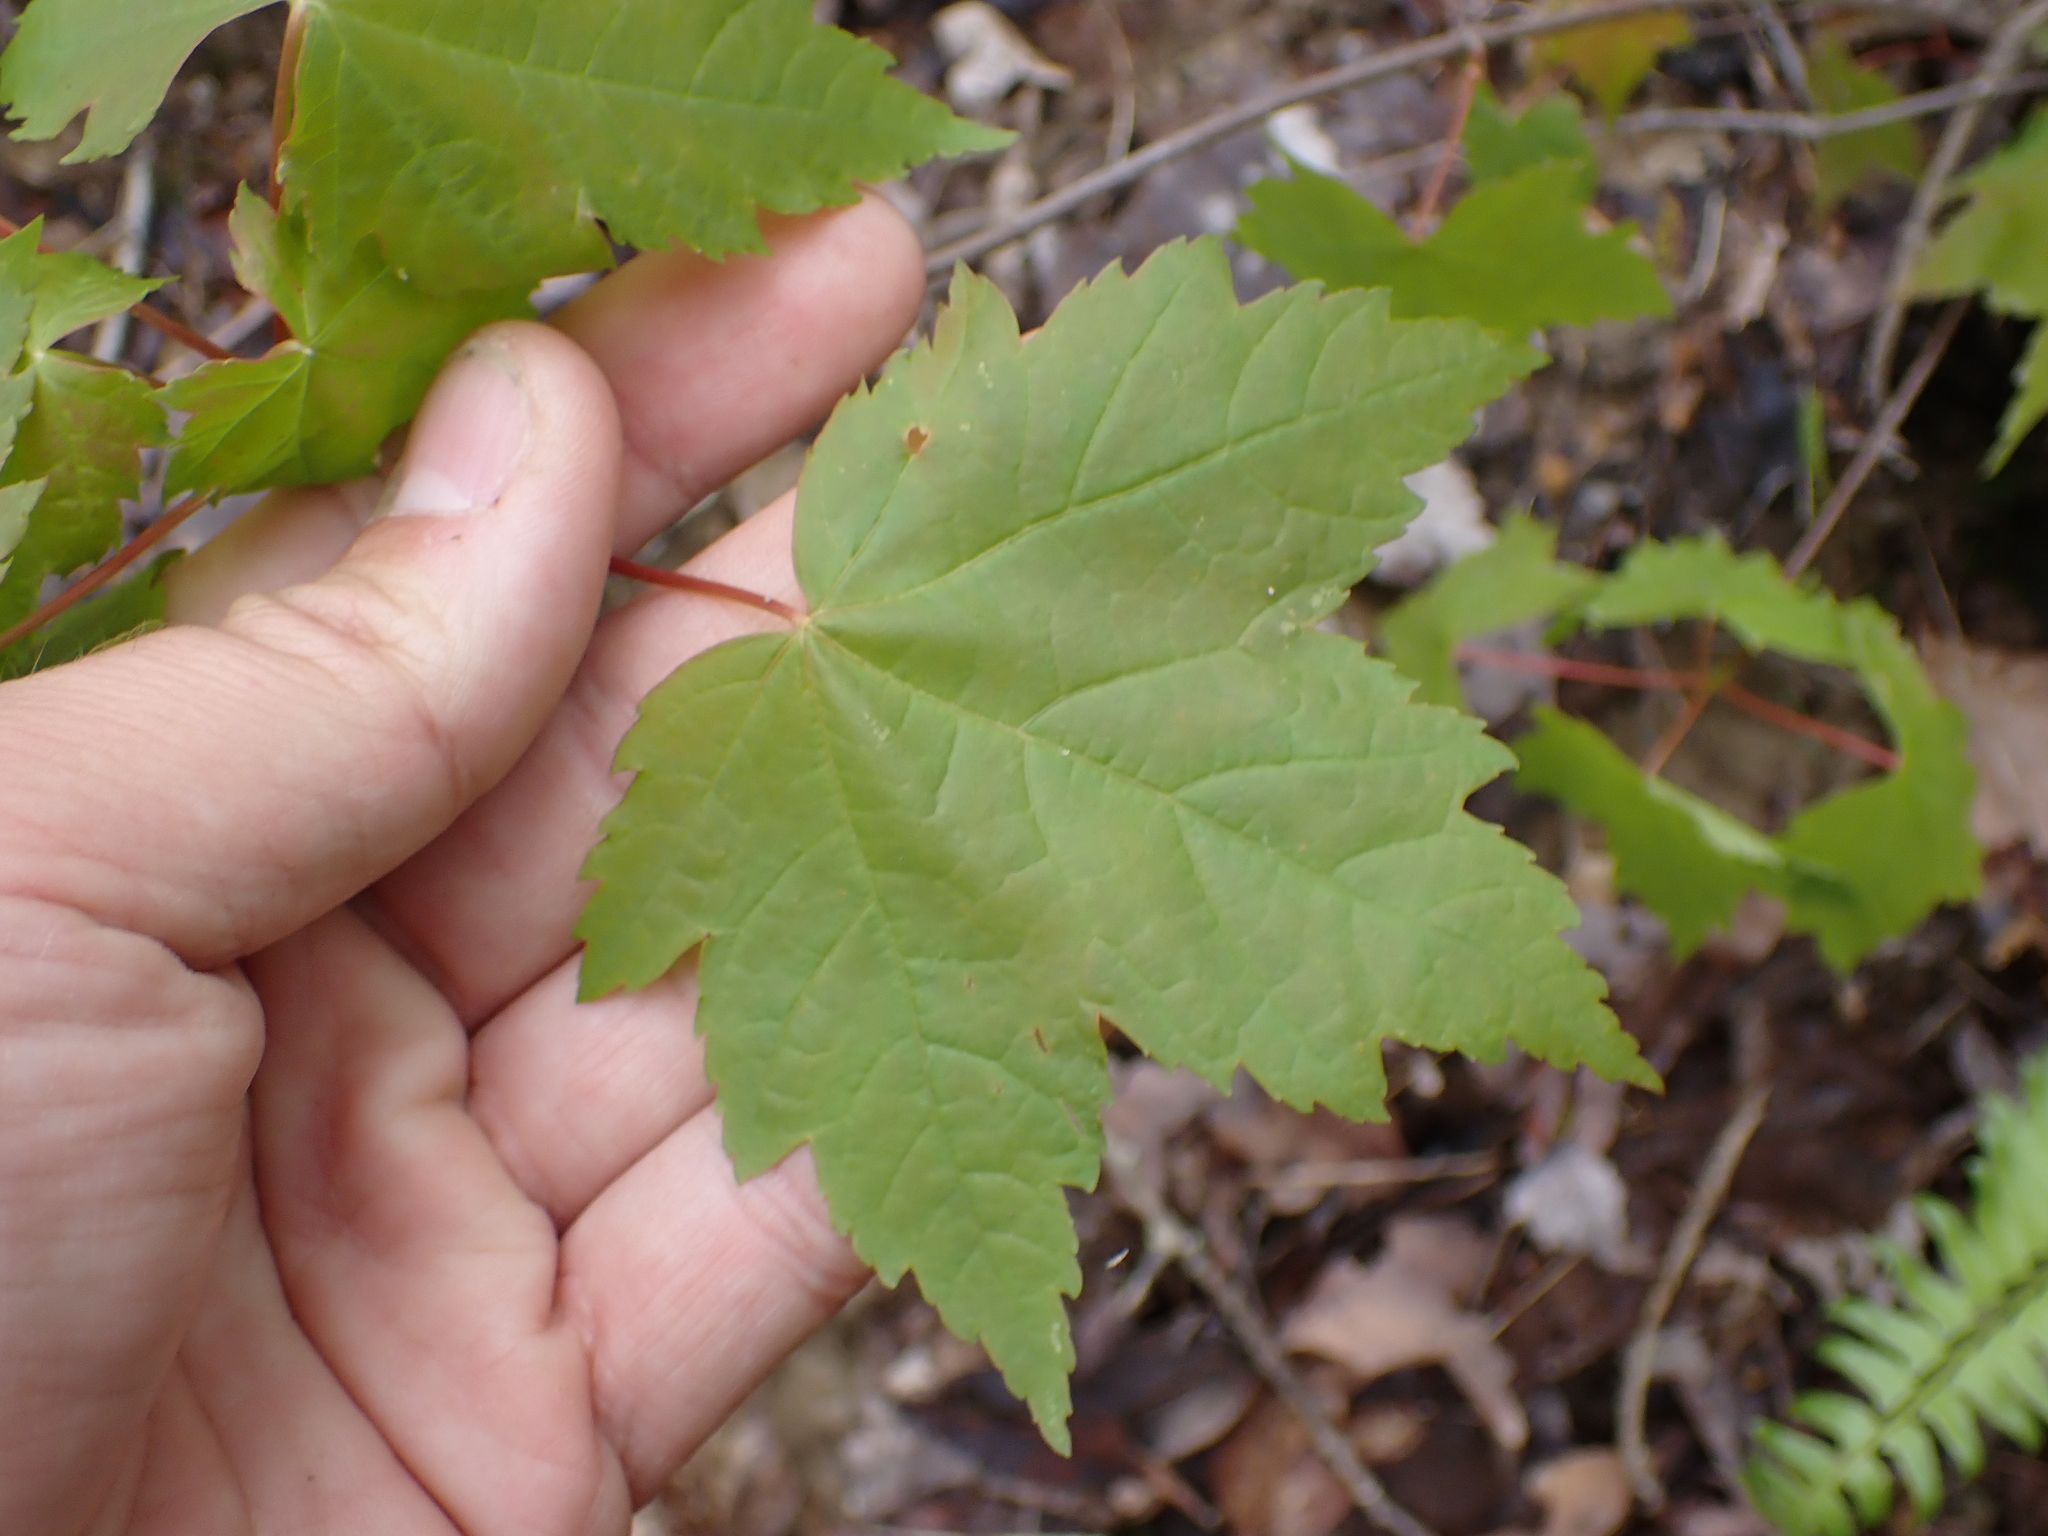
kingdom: Plantae
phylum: Tracheophyta
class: Magnoliopsida
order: Sapindales
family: Sapindaceae
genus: Acer
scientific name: Acer rubrum
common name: Red maple
